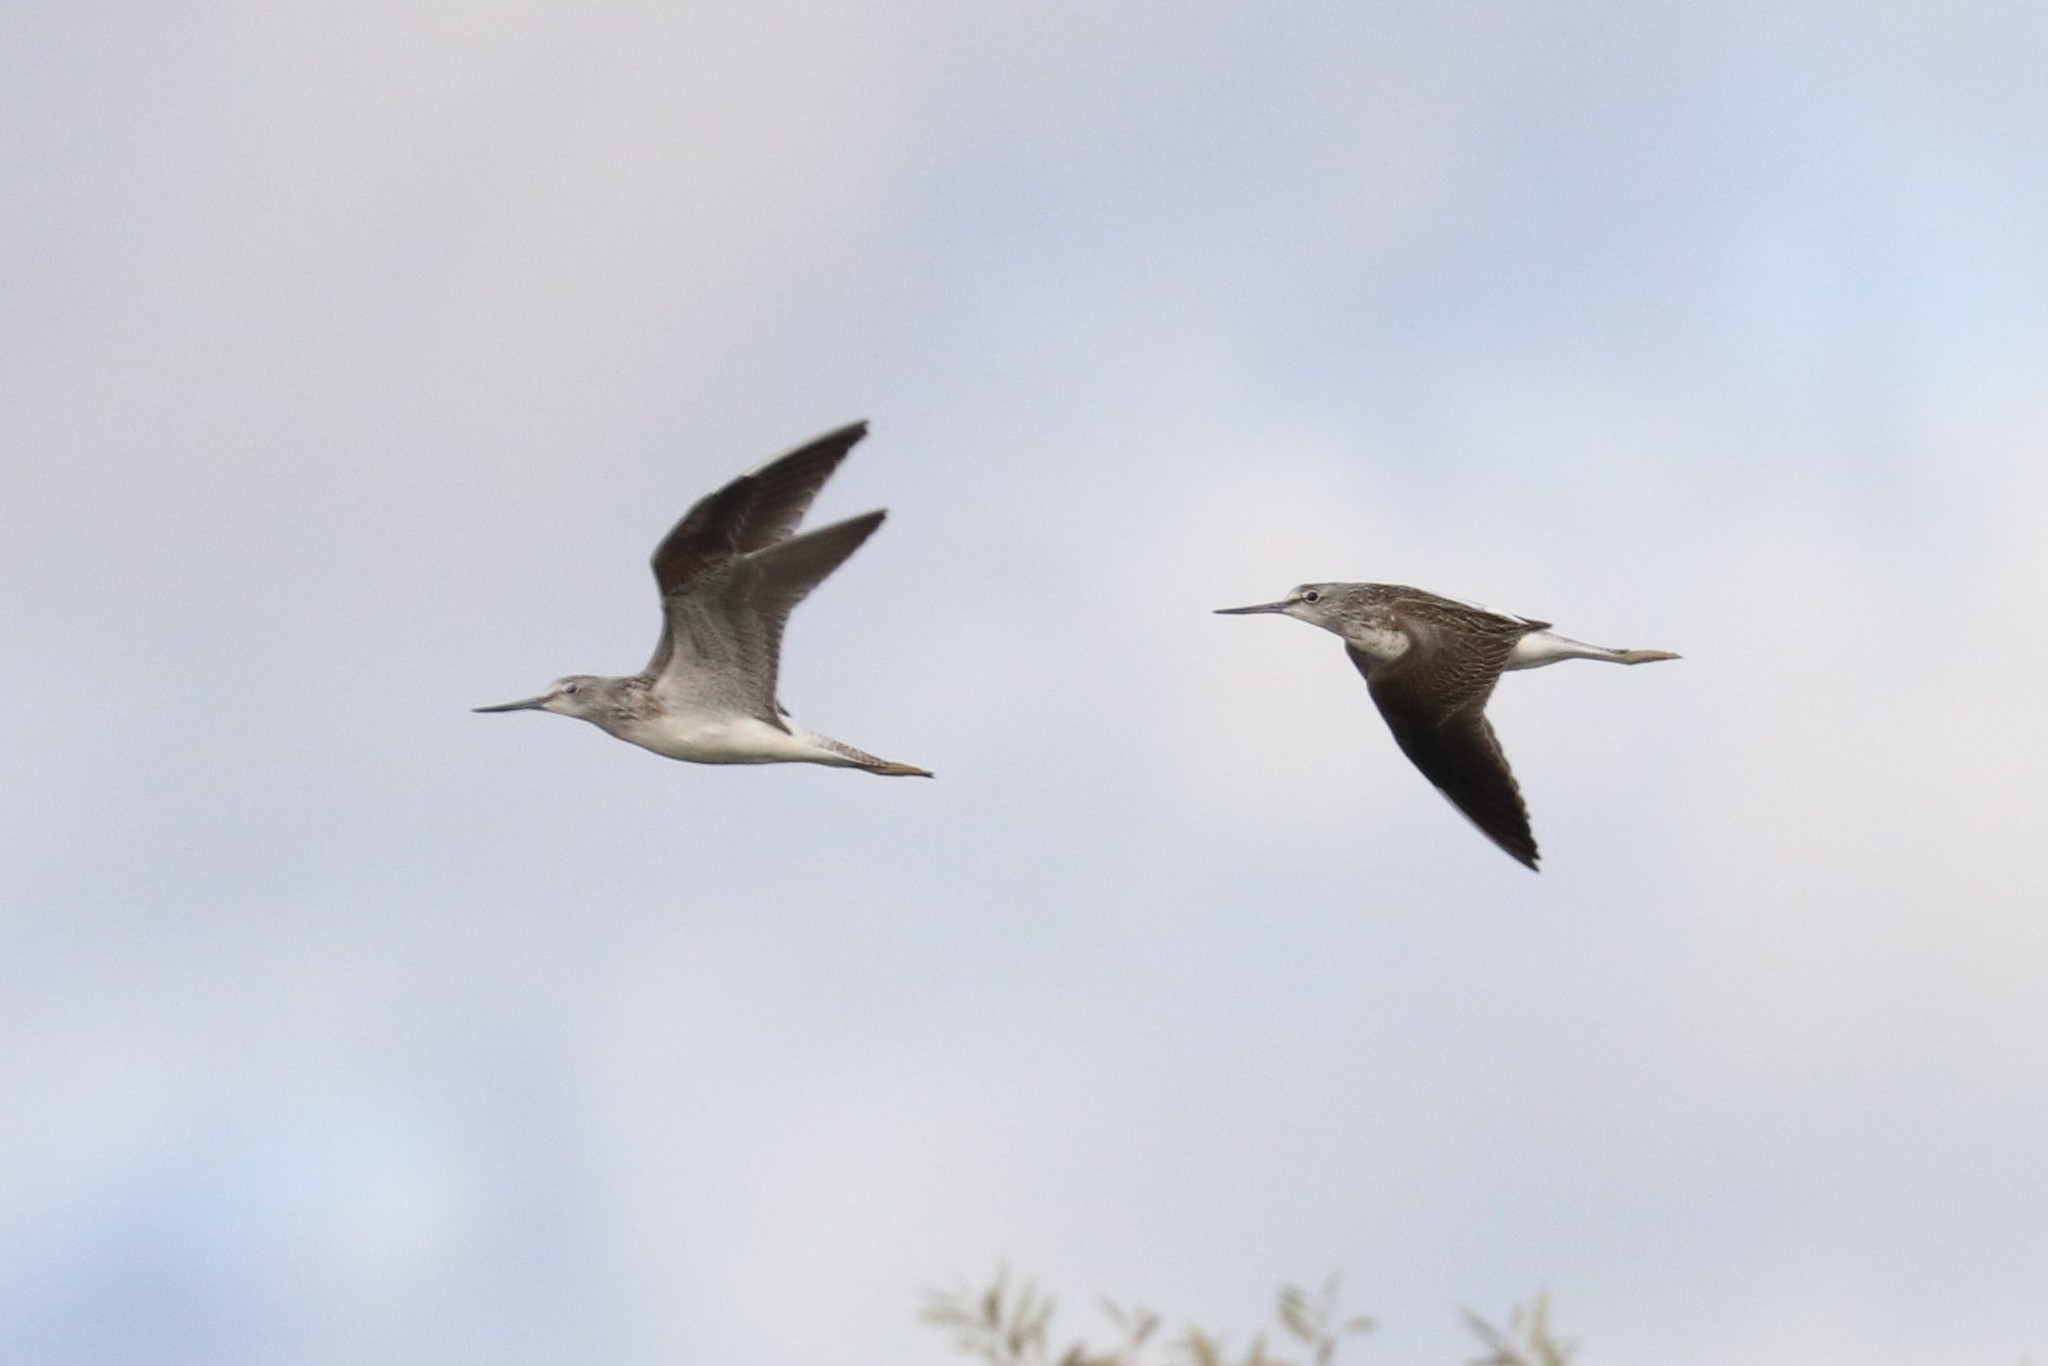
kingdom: Animalia
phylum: Chordata
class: Aves
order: Charadriiformes
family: Scolopacidae
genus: Tringa
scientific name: Tringa nebularia
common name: Common greenshank
